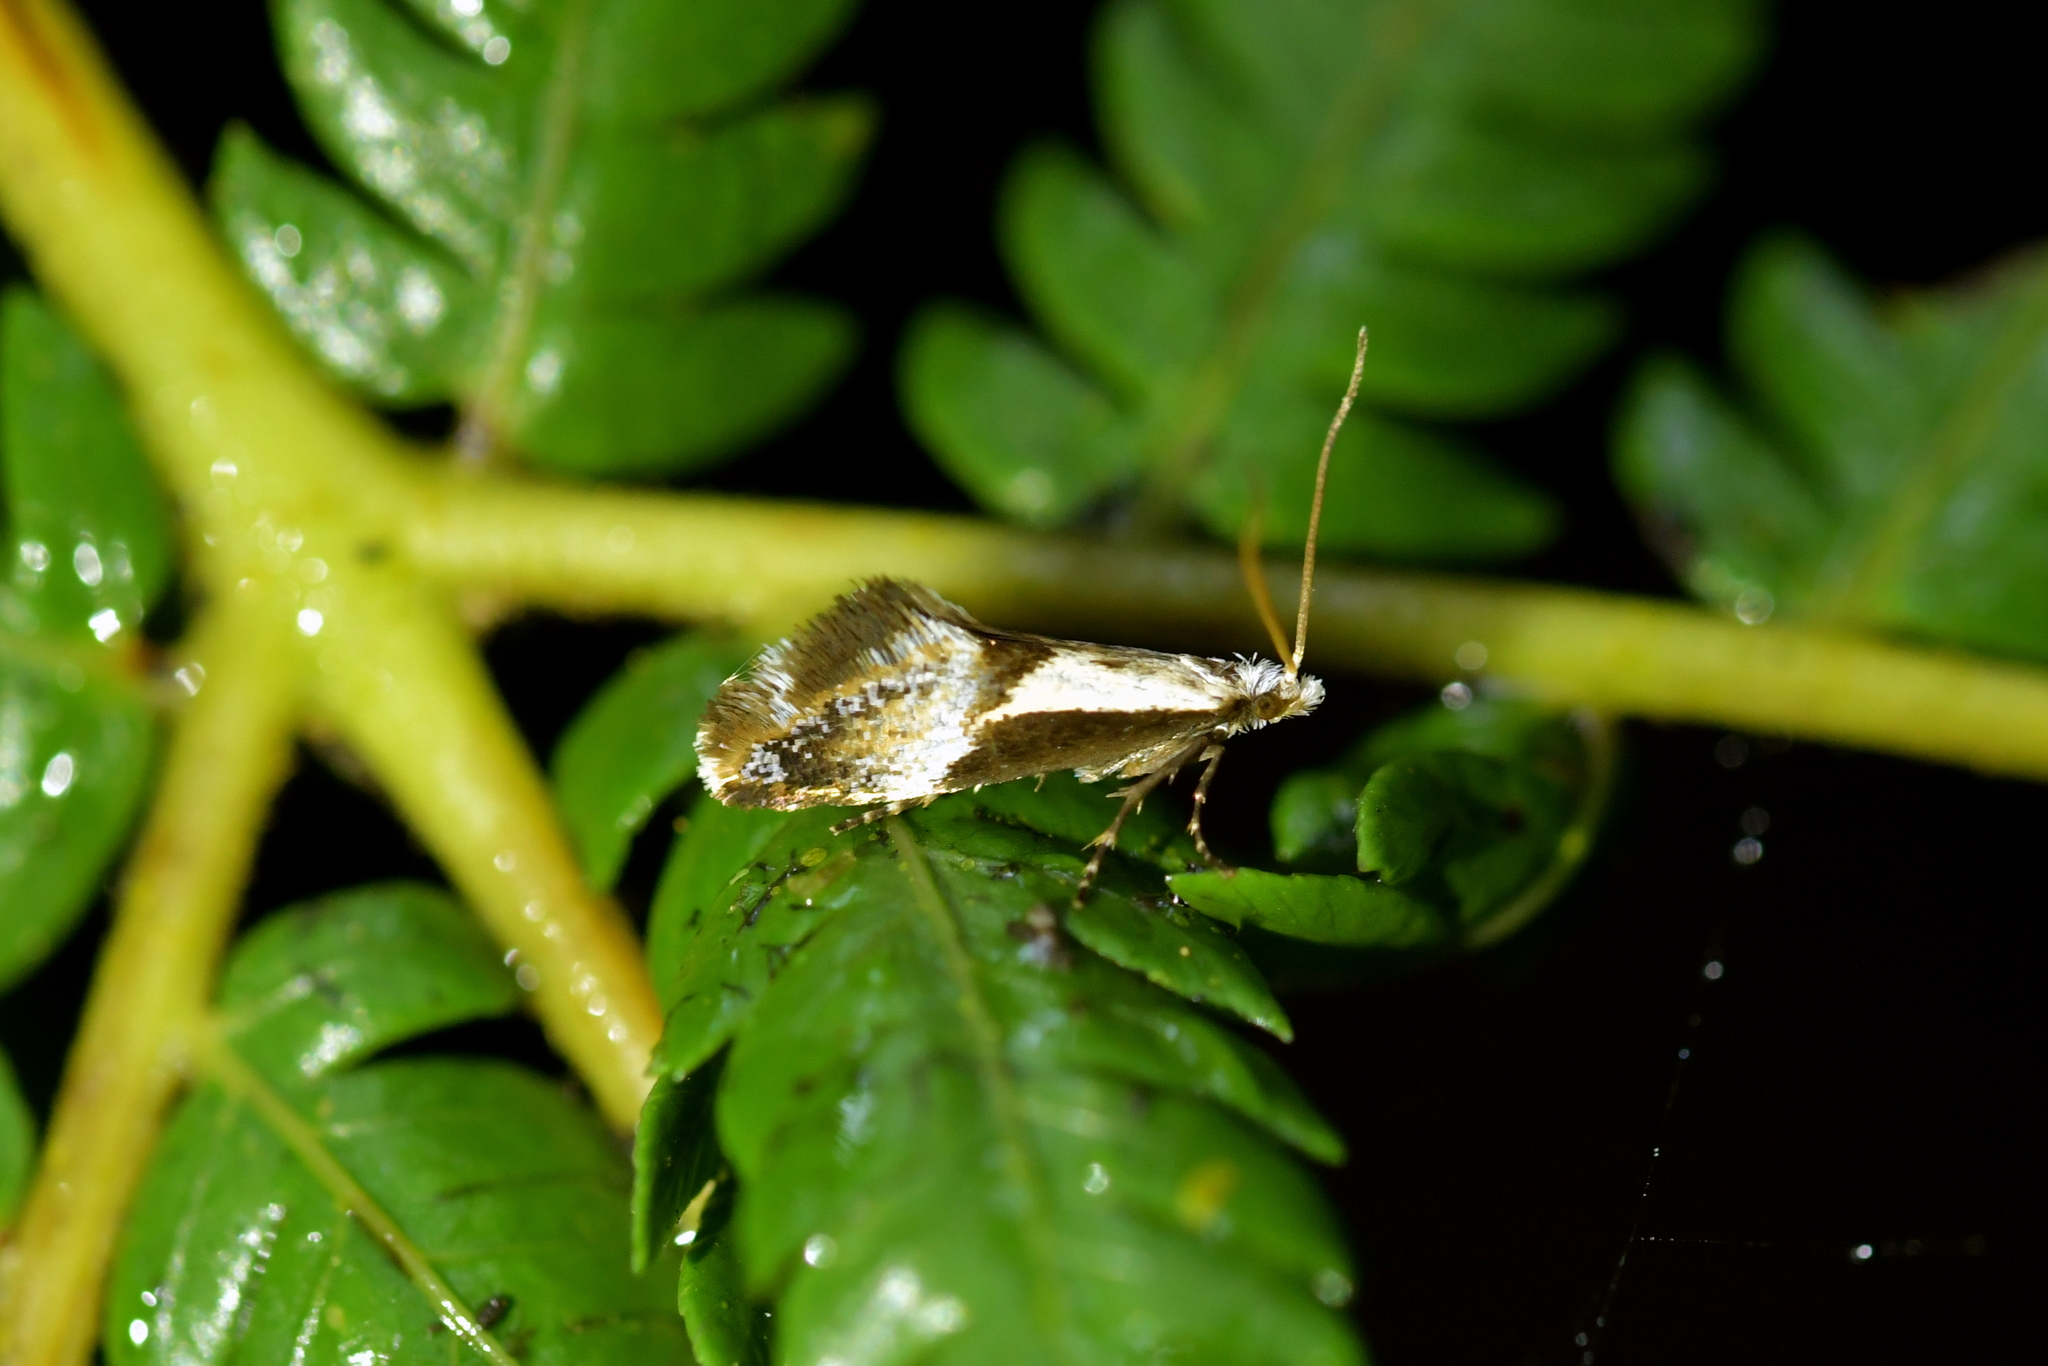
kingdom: Animalia
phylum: Arthropoda
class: Insecta
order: Lepidoptera
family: Mnesarchaeidae
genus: Mnesarchella
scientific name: Mnesarchella fusilella
